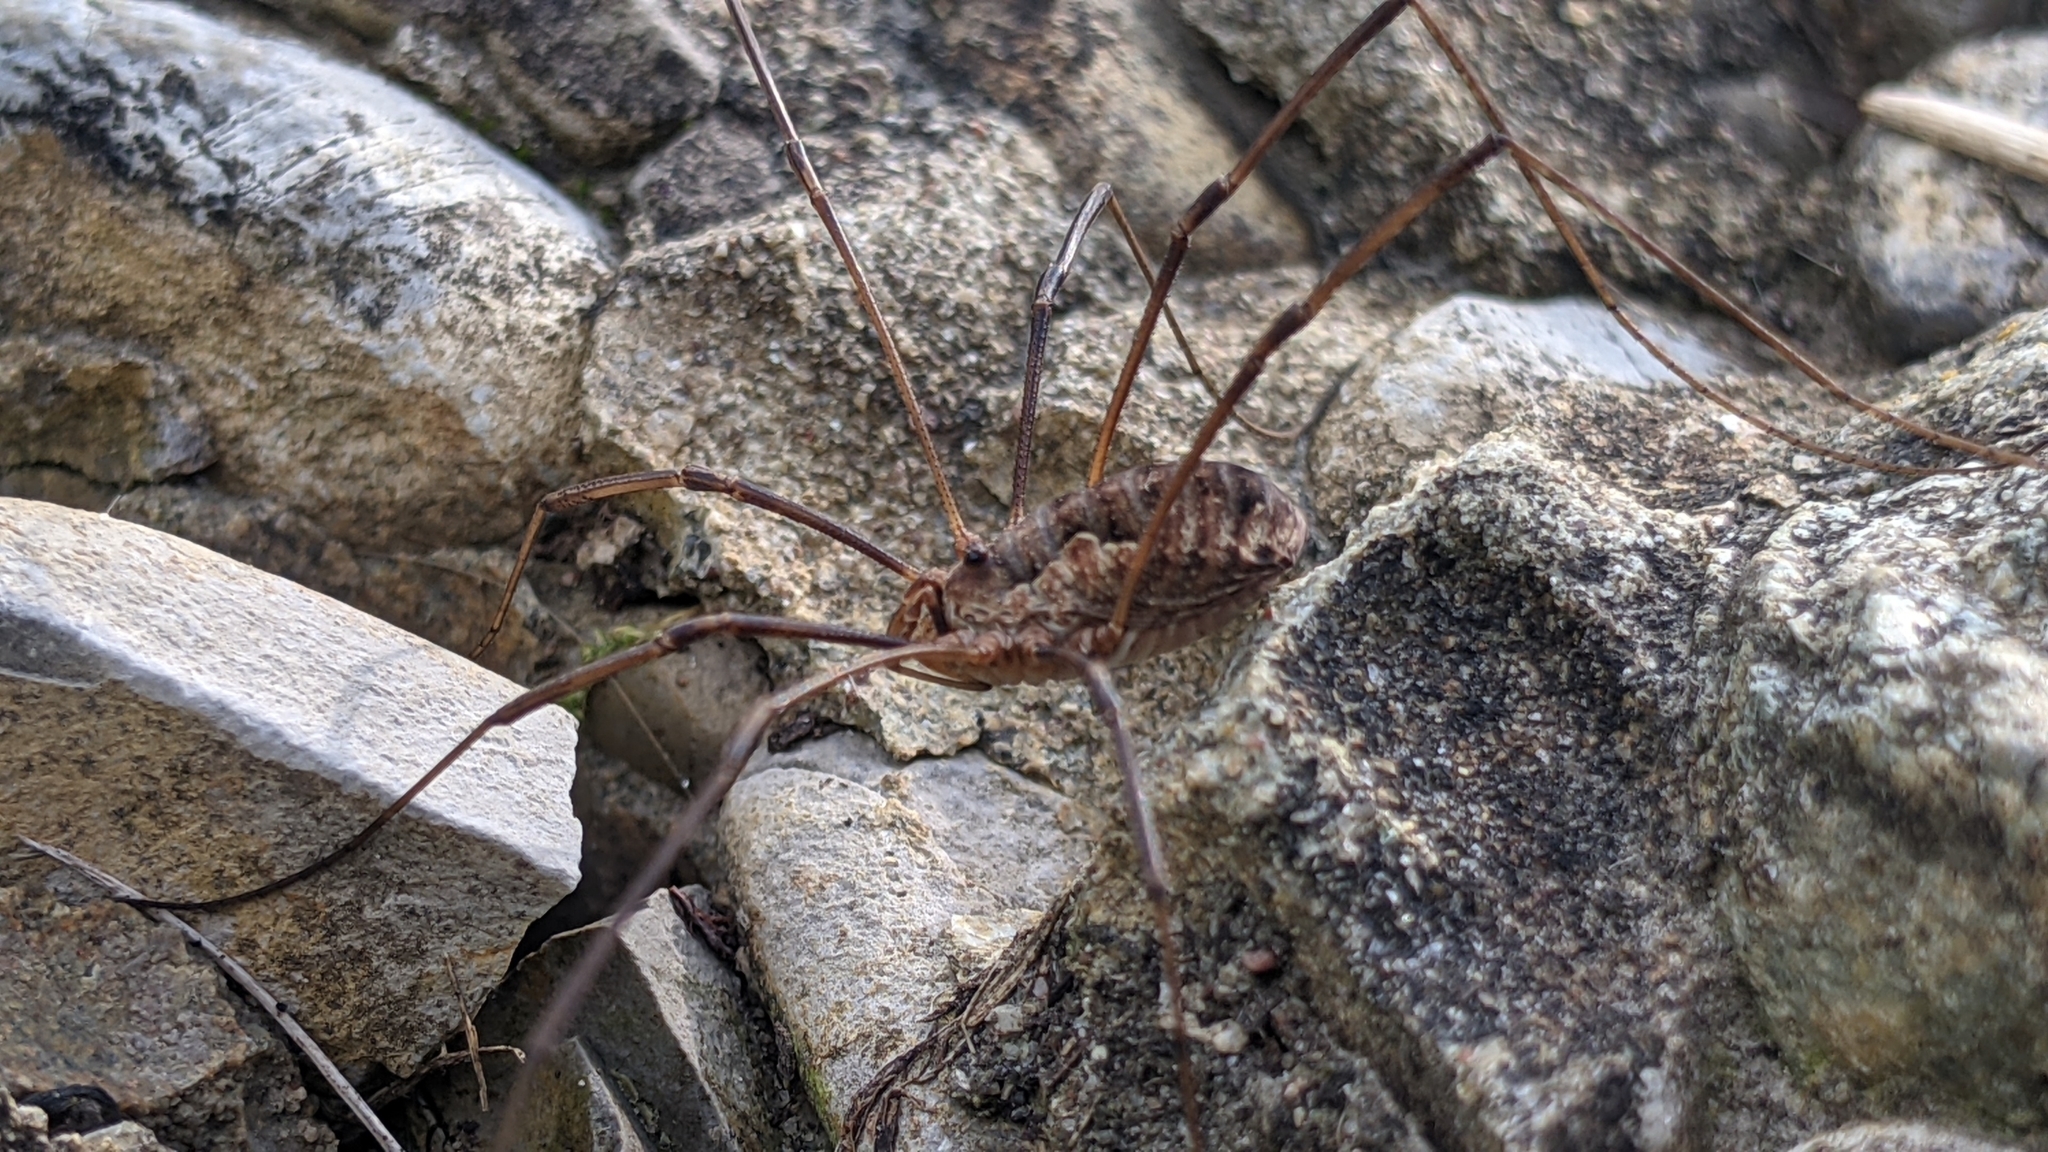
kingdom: Animalia
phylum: Arthropoda
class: Arachnida
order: Opiliones
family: Phalangiidae
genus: Phalangium
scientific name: Phalangium opilio
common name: Daddy longleg
